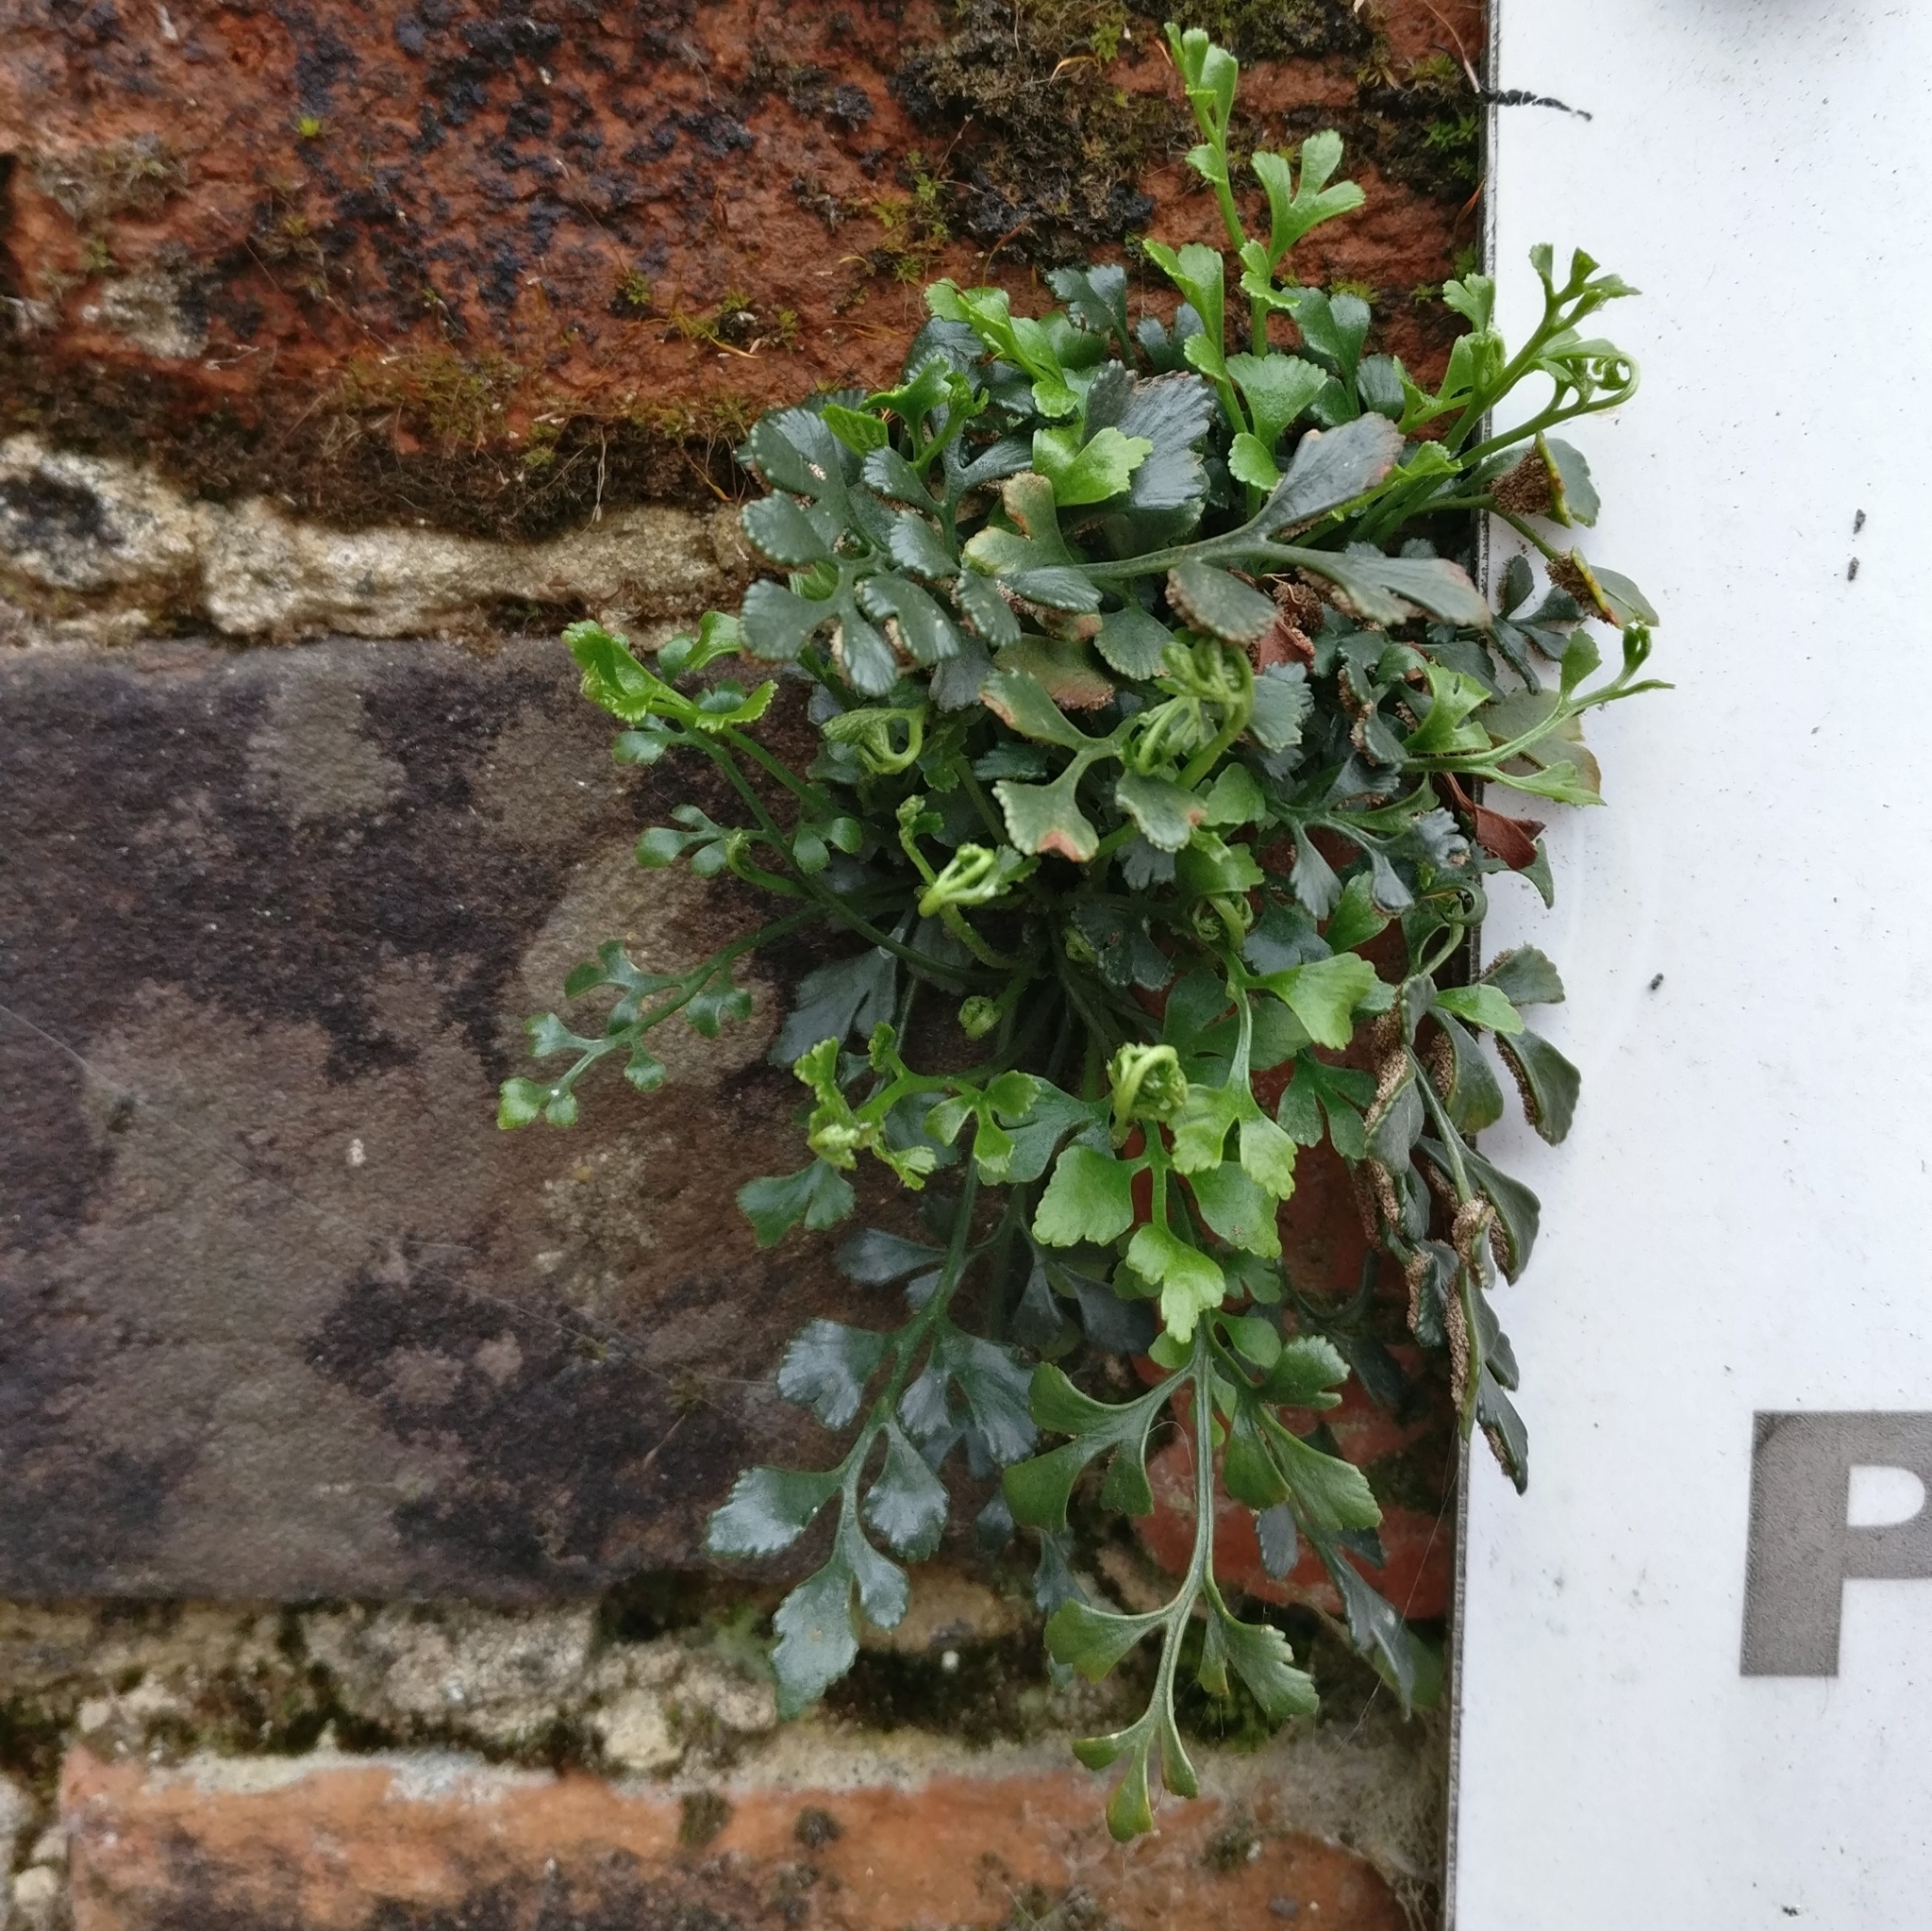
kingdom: Plantae
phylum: Tracheophyta
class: Polypodiopsida
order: Polypodiales
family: Aspleniaceae
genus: Asplenium
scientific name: Asplenium ruta-muraria
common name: Wall-rue
